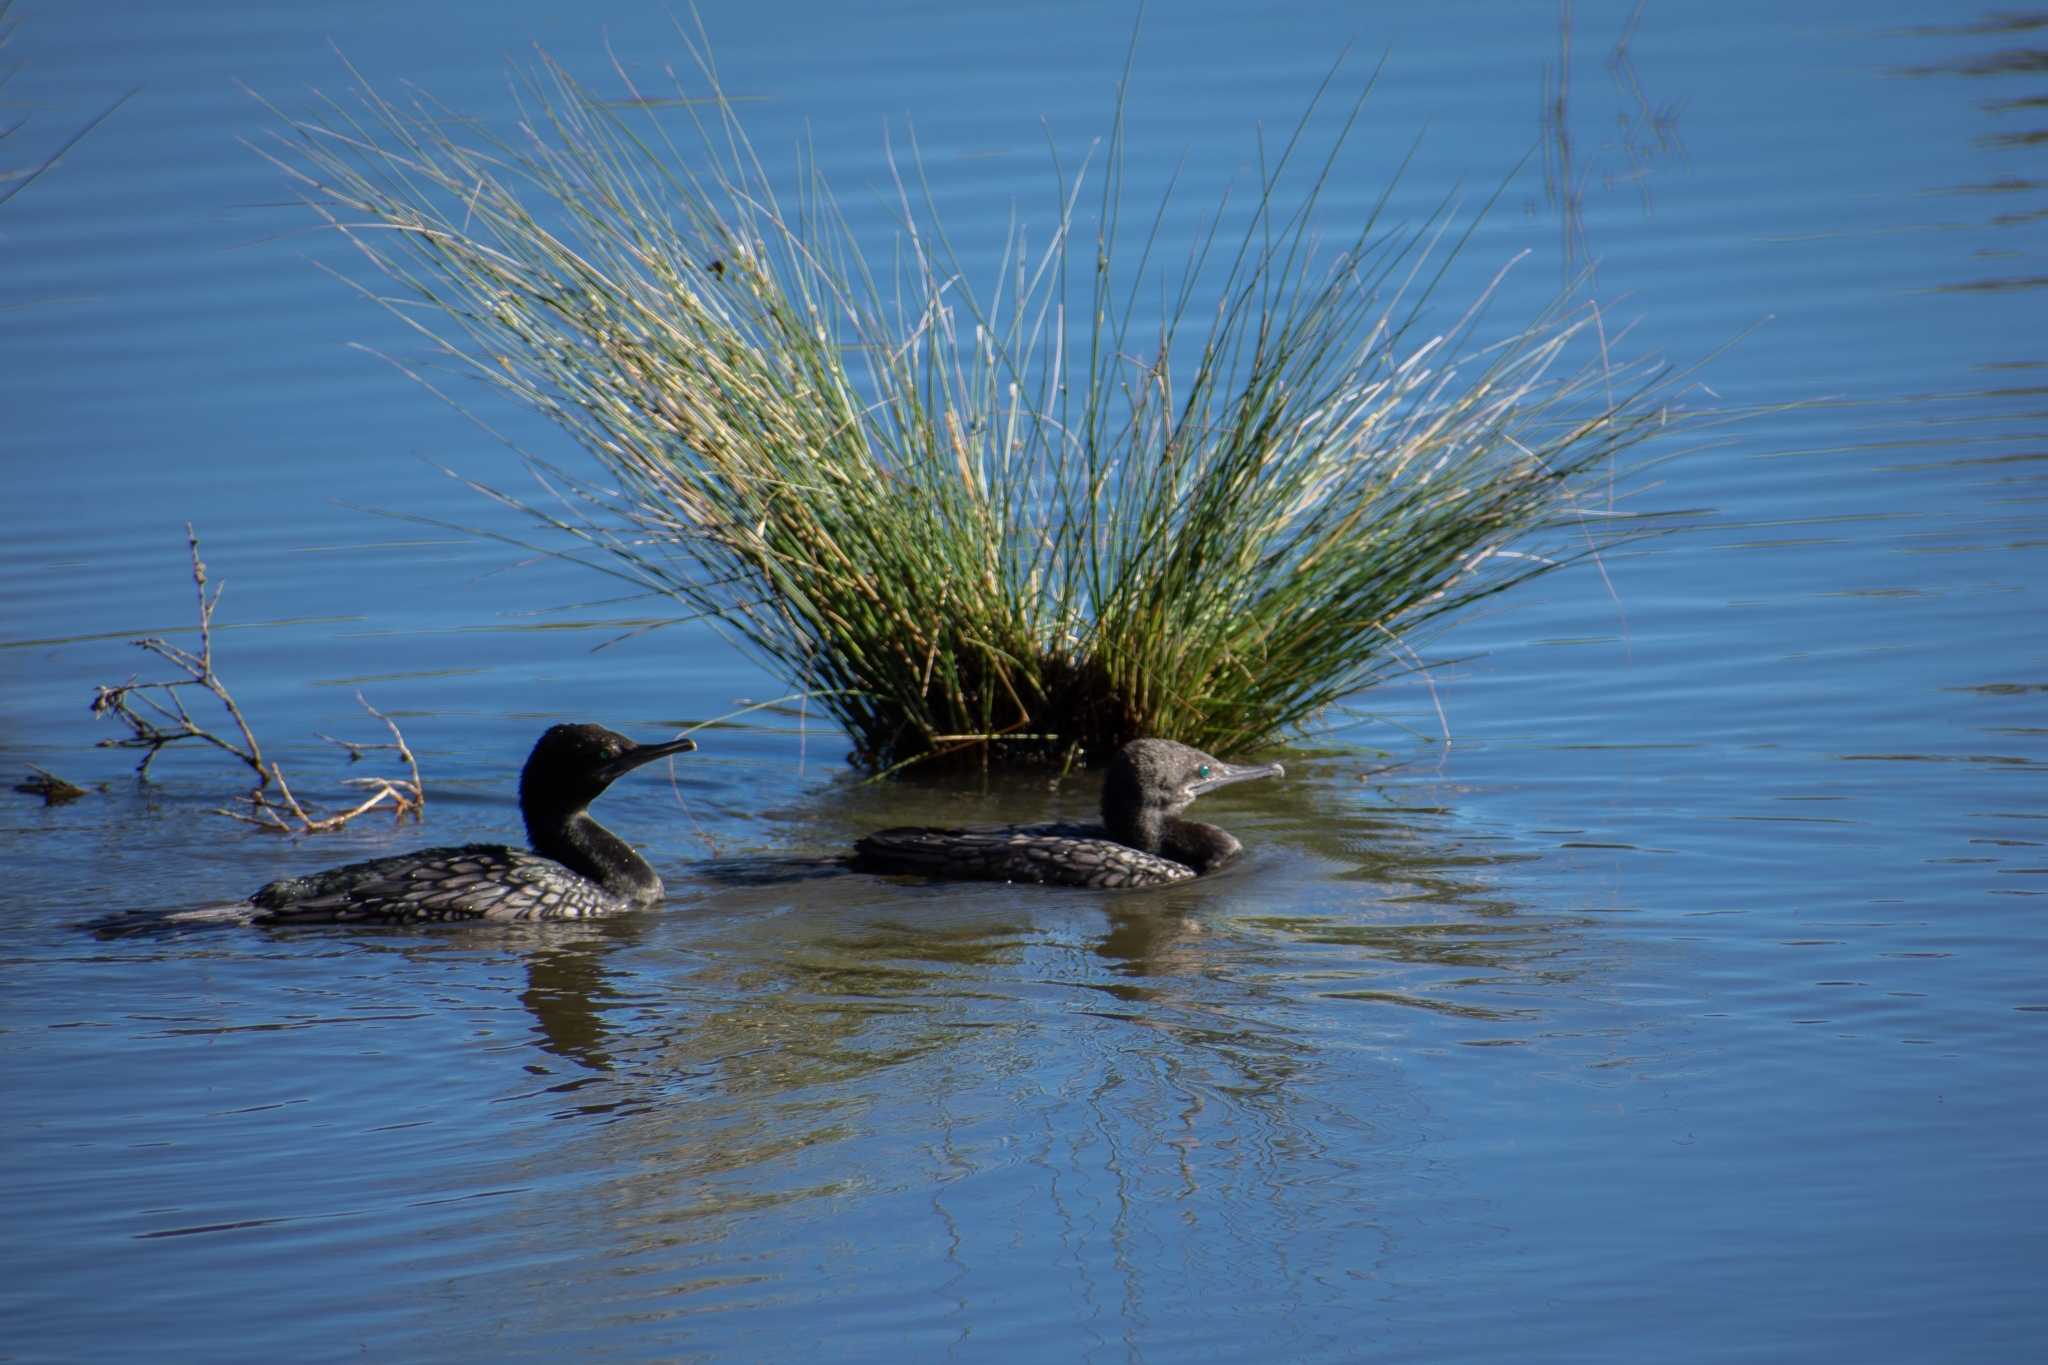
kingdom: Animalia
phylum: Chordata
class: Aves
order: Suliformes
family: Phalacrocoracidae
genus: Phalacrocorax
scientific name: Phalacrocorax sulcirostris
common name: Little black cormorant
